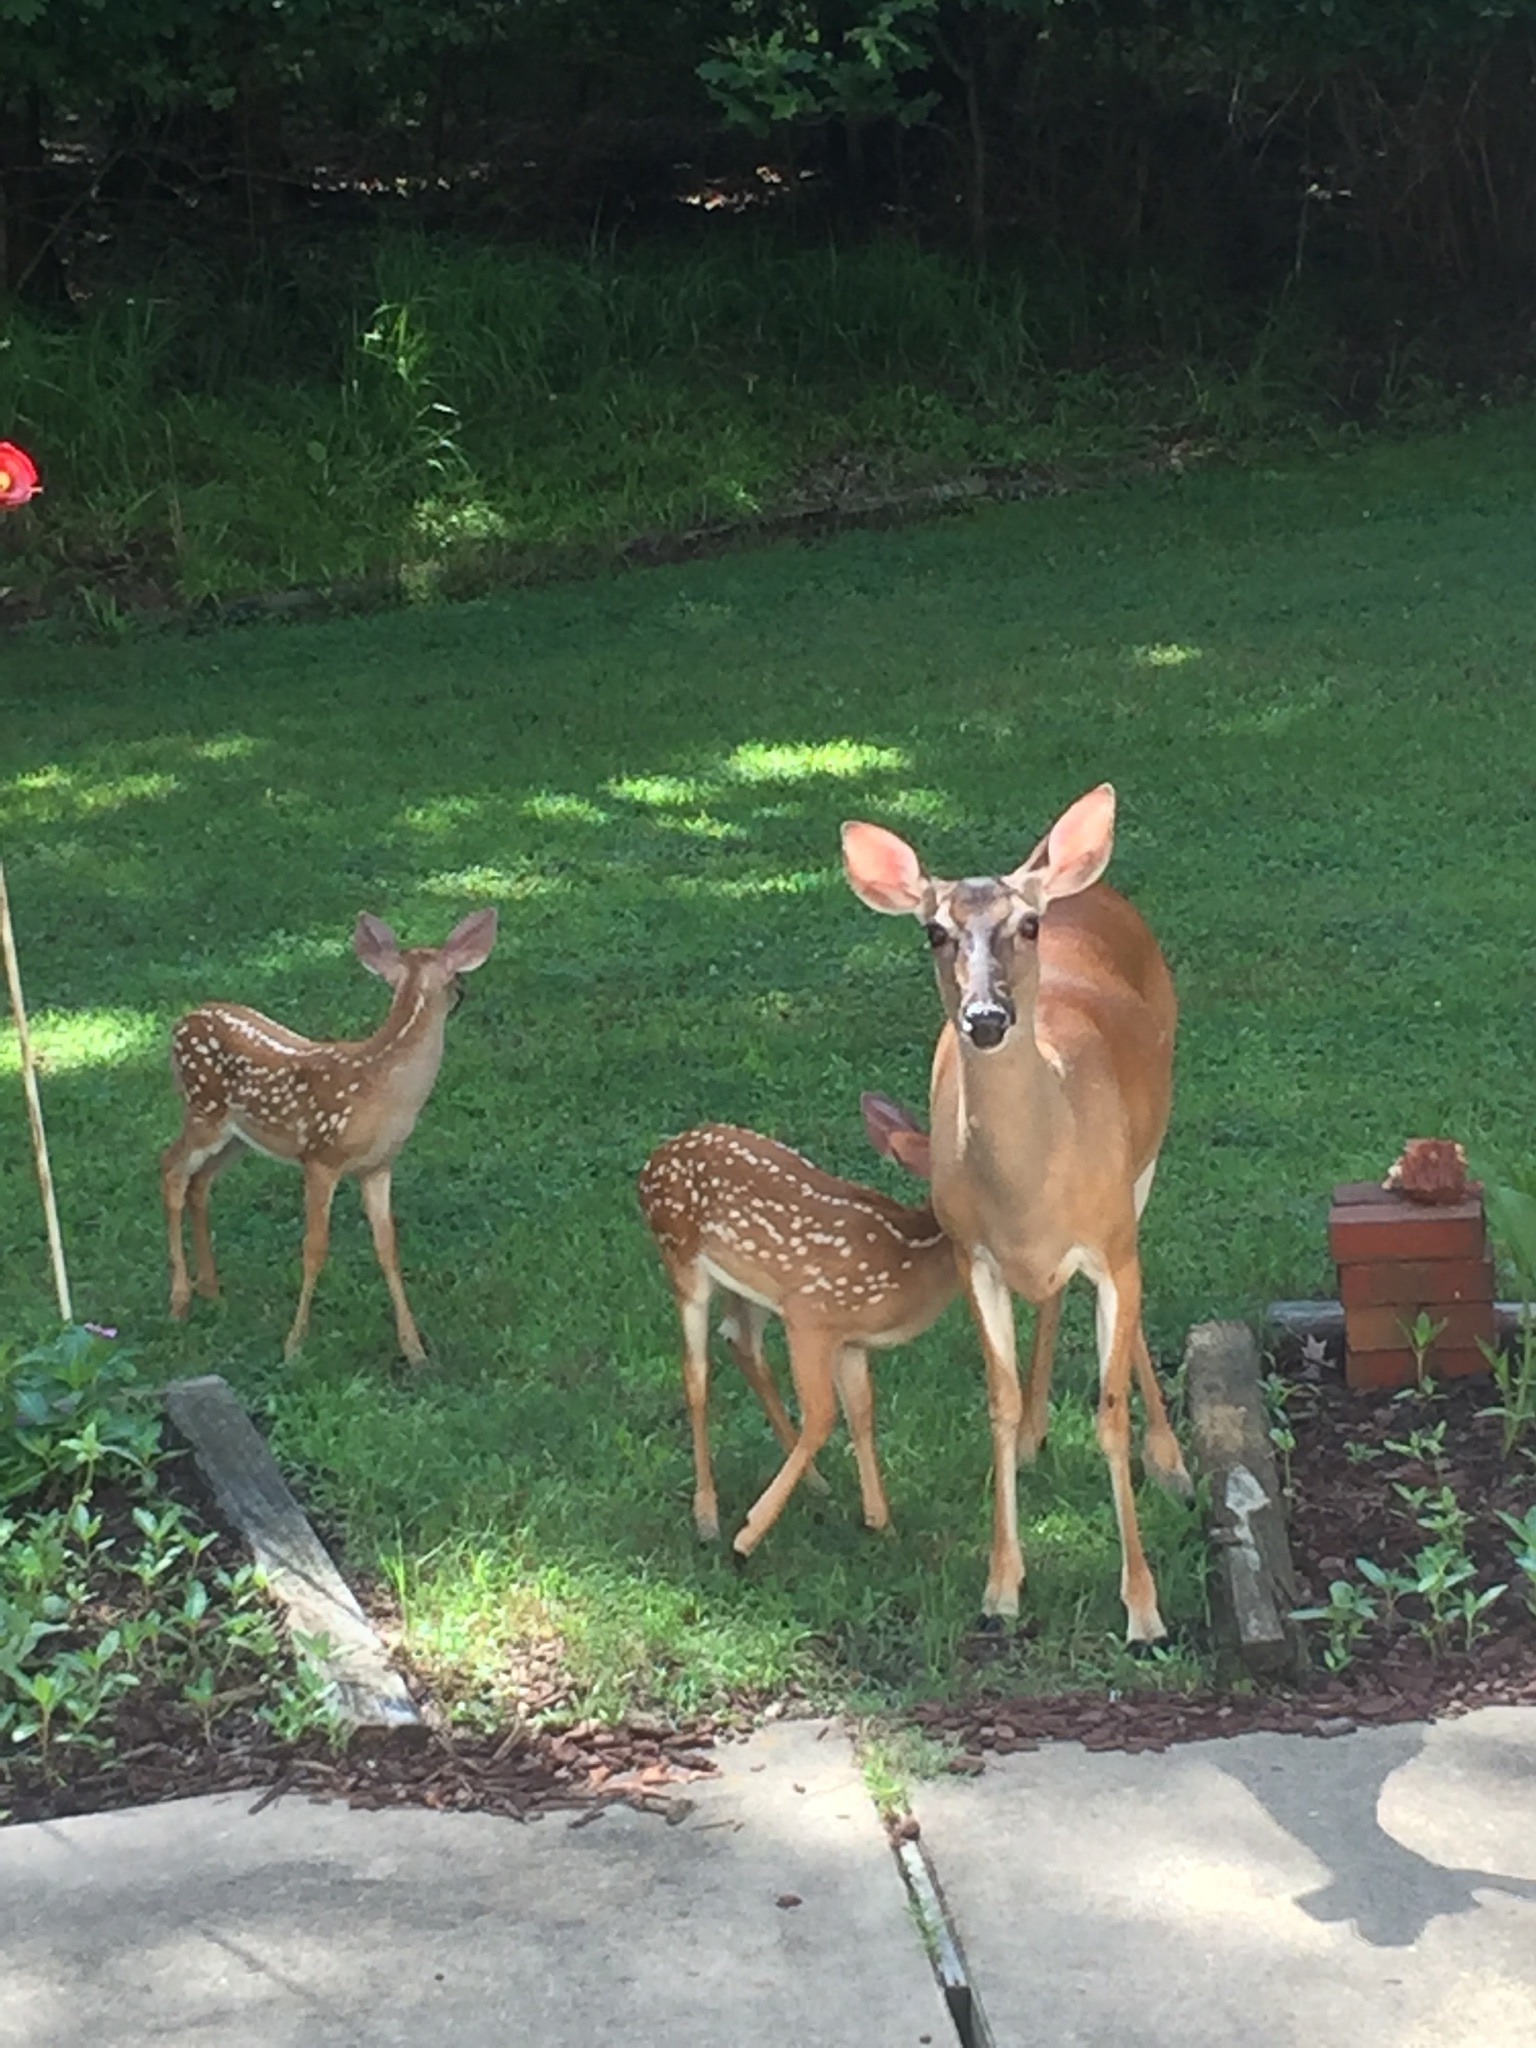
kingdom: Animalia
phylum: Chordata
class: Mammalia
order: Artiodactyla
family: Cervidae
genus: Odocoileus
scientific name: Odocoileus virginianus
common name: White-tailed deer
